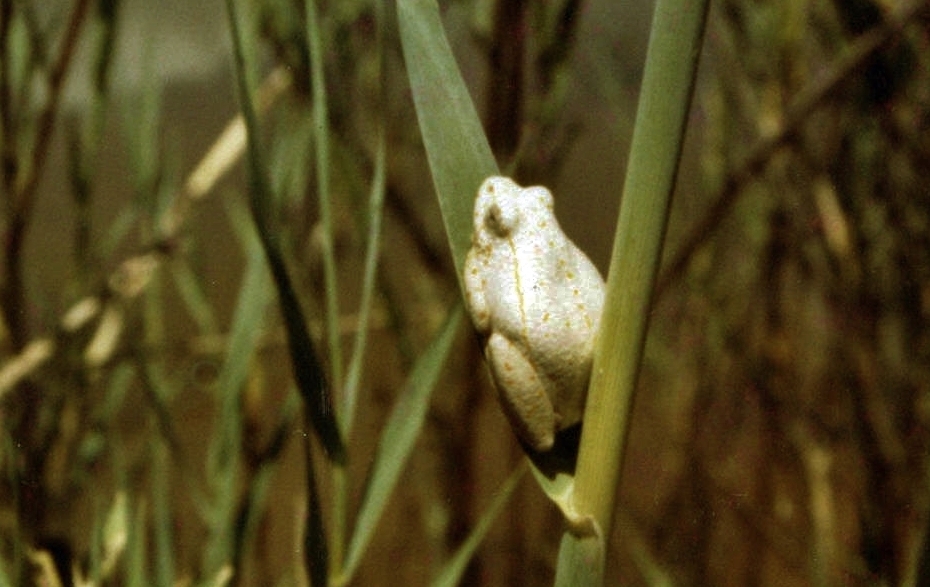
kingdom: Animalia
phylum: Chordata
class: Amphibia
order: Anura
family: Hyperoliidae
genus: Hyperolius
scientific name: Hyperolius marmoratus
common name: Painted reed frog
